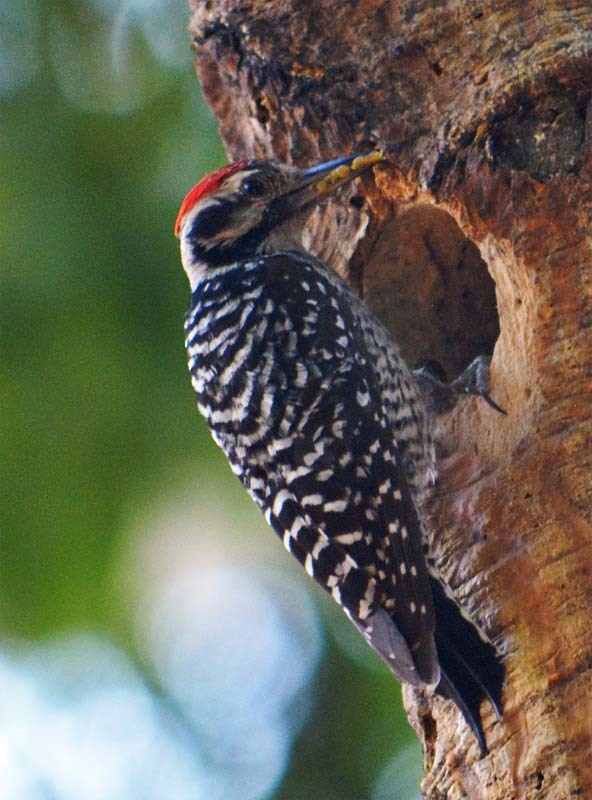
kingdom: Animalia
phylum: Chordata
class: Aves
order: Piciformes
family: Picidae
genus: Dryobates
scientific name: Dryobates scalaris
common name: Ladder-backed woodpecker
